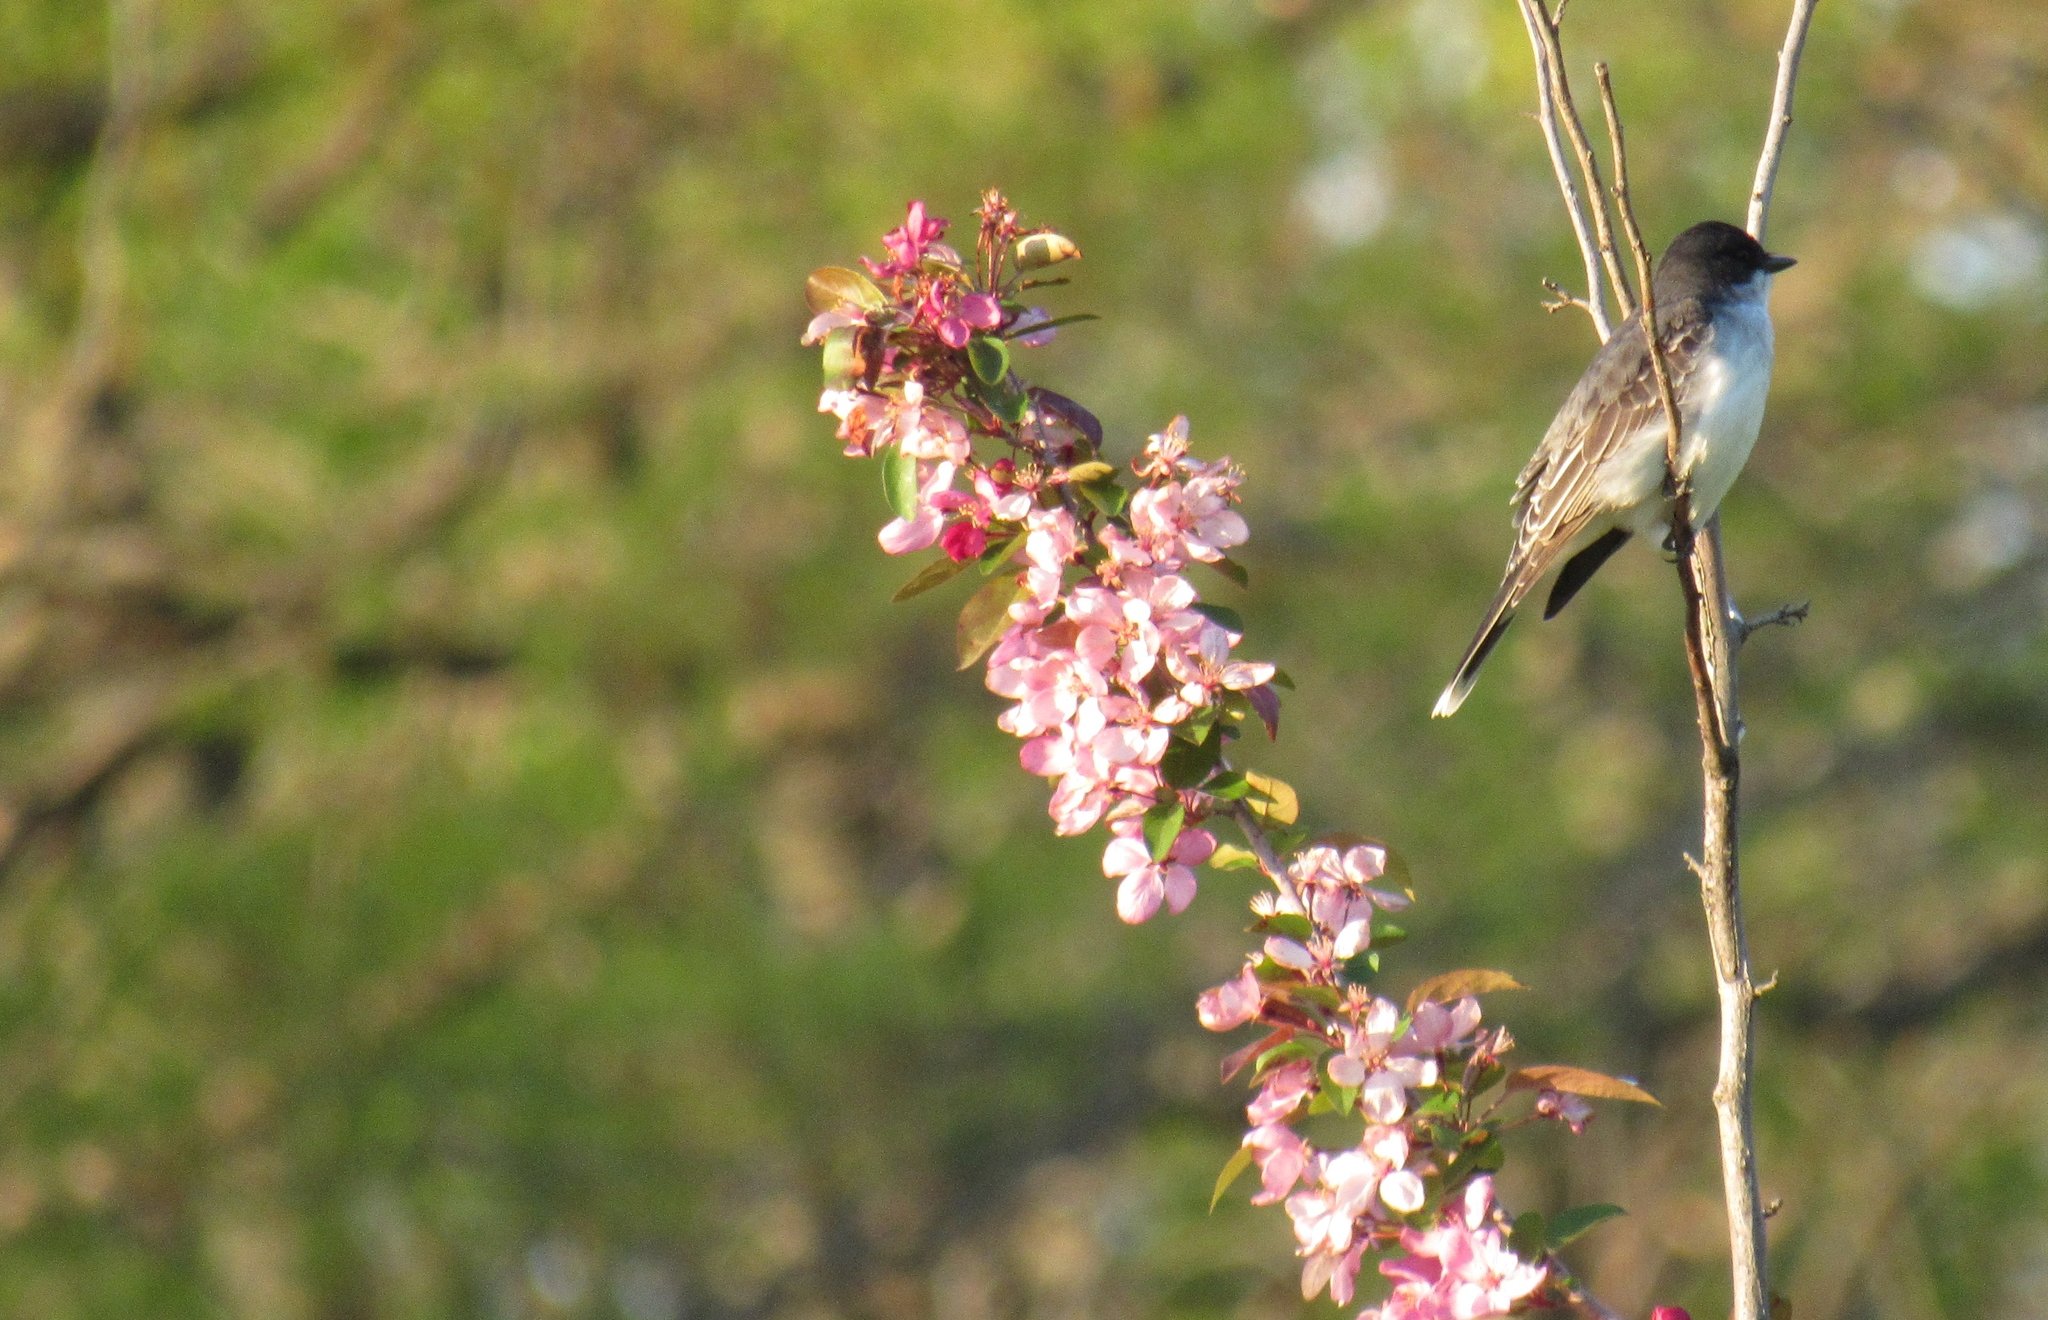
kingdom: Animalia
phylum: Chordata
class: Aves
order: Passeriformes
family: Tyrannidae
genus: Tyrannus
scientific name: Tyrannus tyrannus
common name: Eastern kingbird
